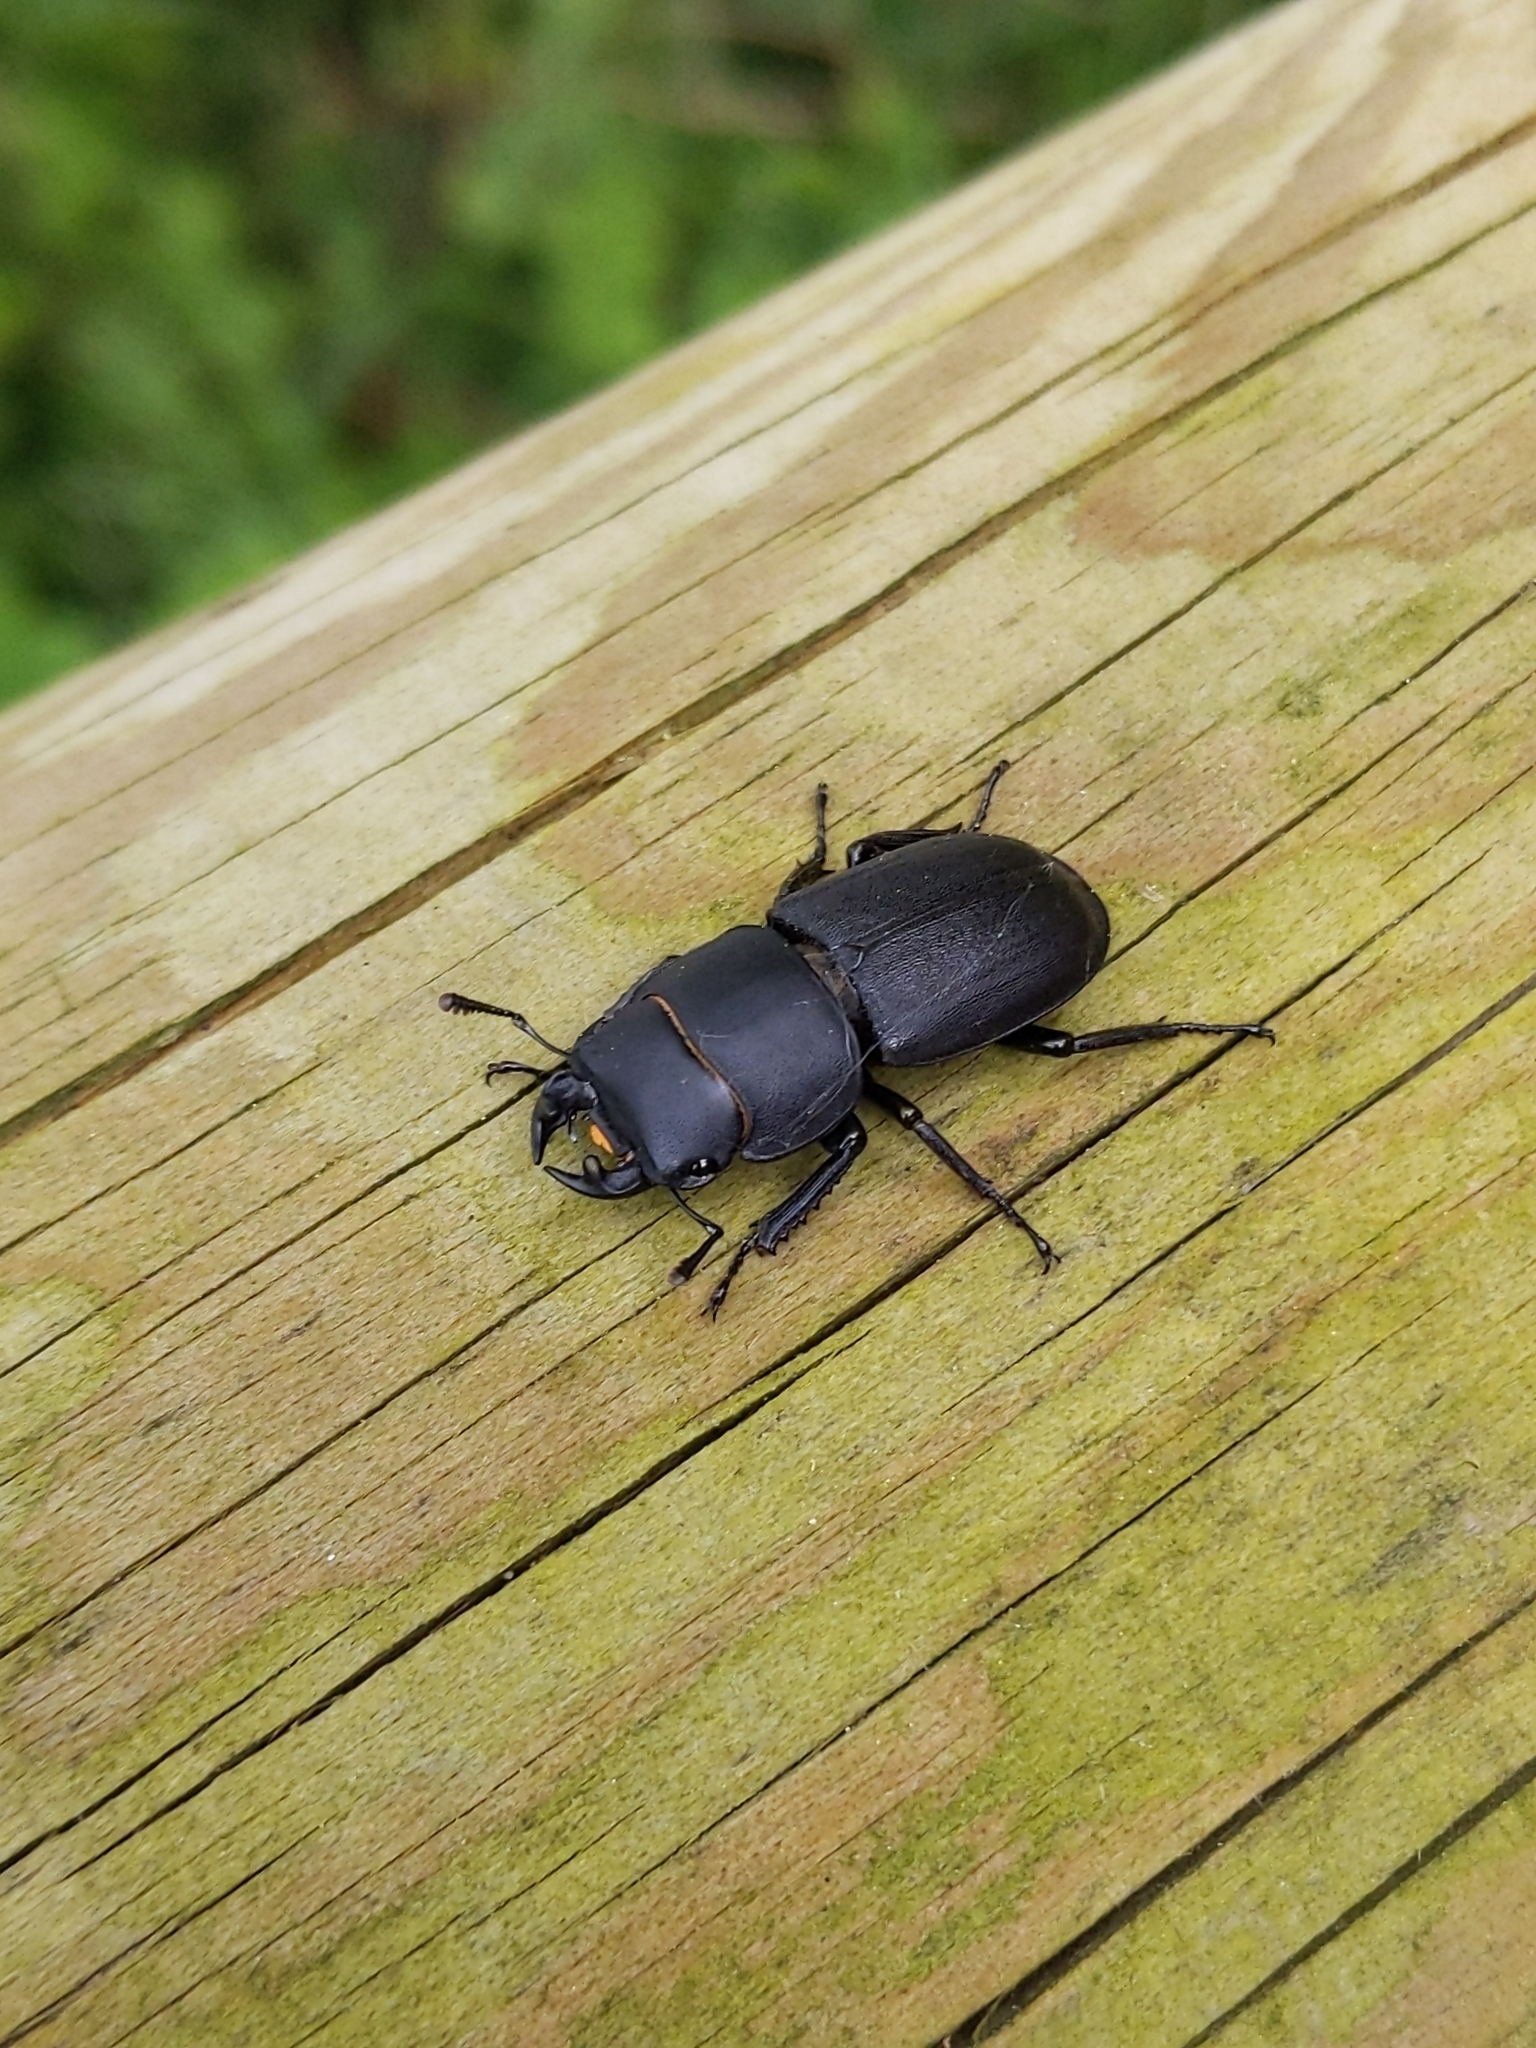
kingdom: Animalia
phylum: Arthropoda
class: Insecta
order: Coleoptera
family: Lucanidae
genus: Dorcus
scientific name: Dorcus parallelipipedus
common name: Lesser stag beetle
